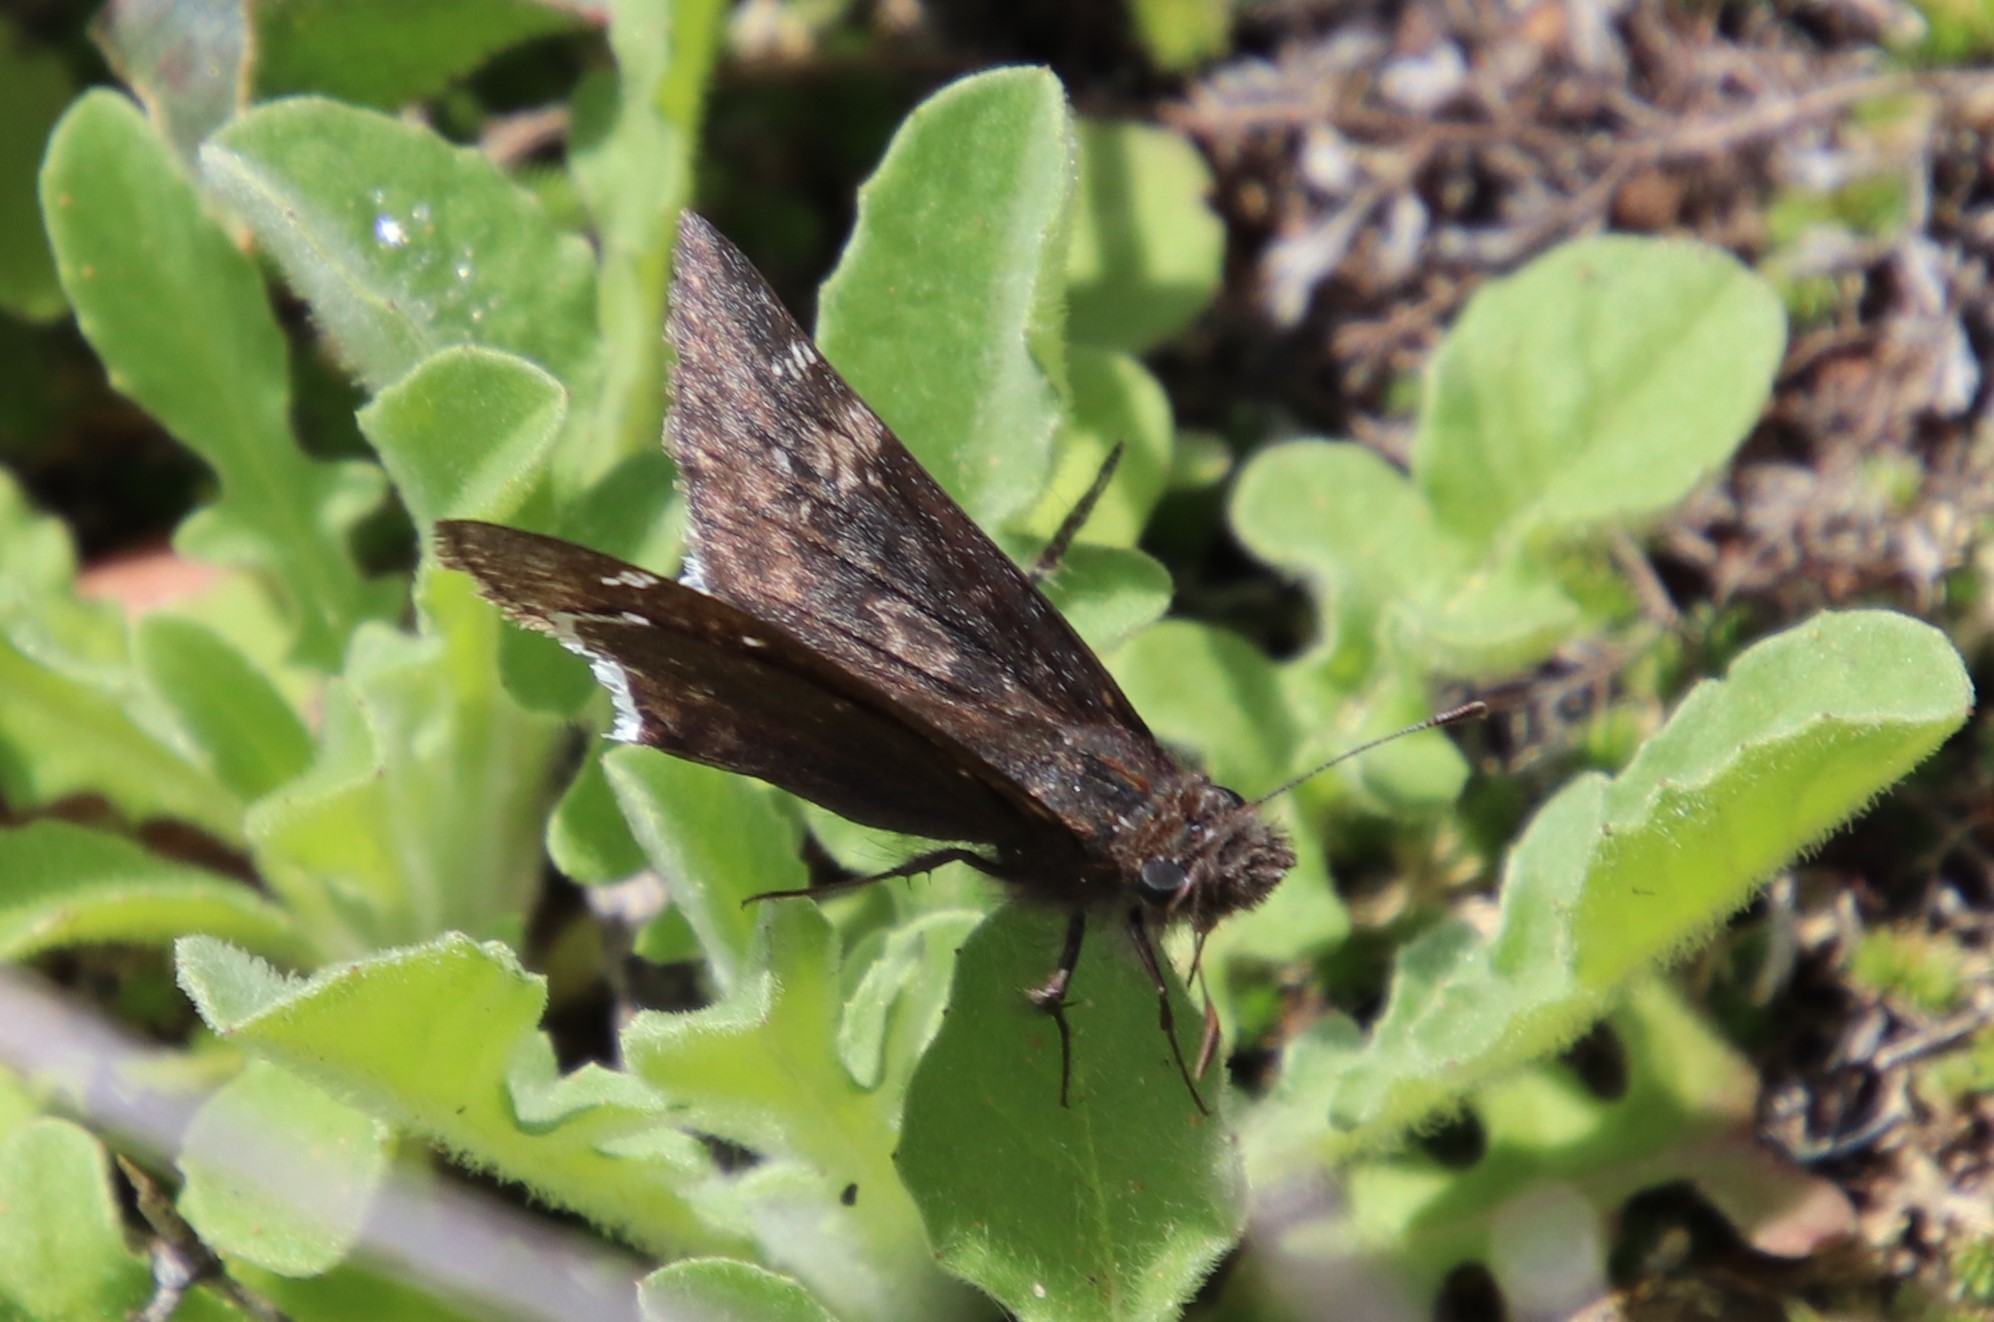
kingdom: Animalia
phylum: Arthropoda
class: Insecta
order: Lepidoptera
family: Hesperiidae
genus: Erynnis
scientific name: Erynnis funeralis
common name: Funereal duskywing
